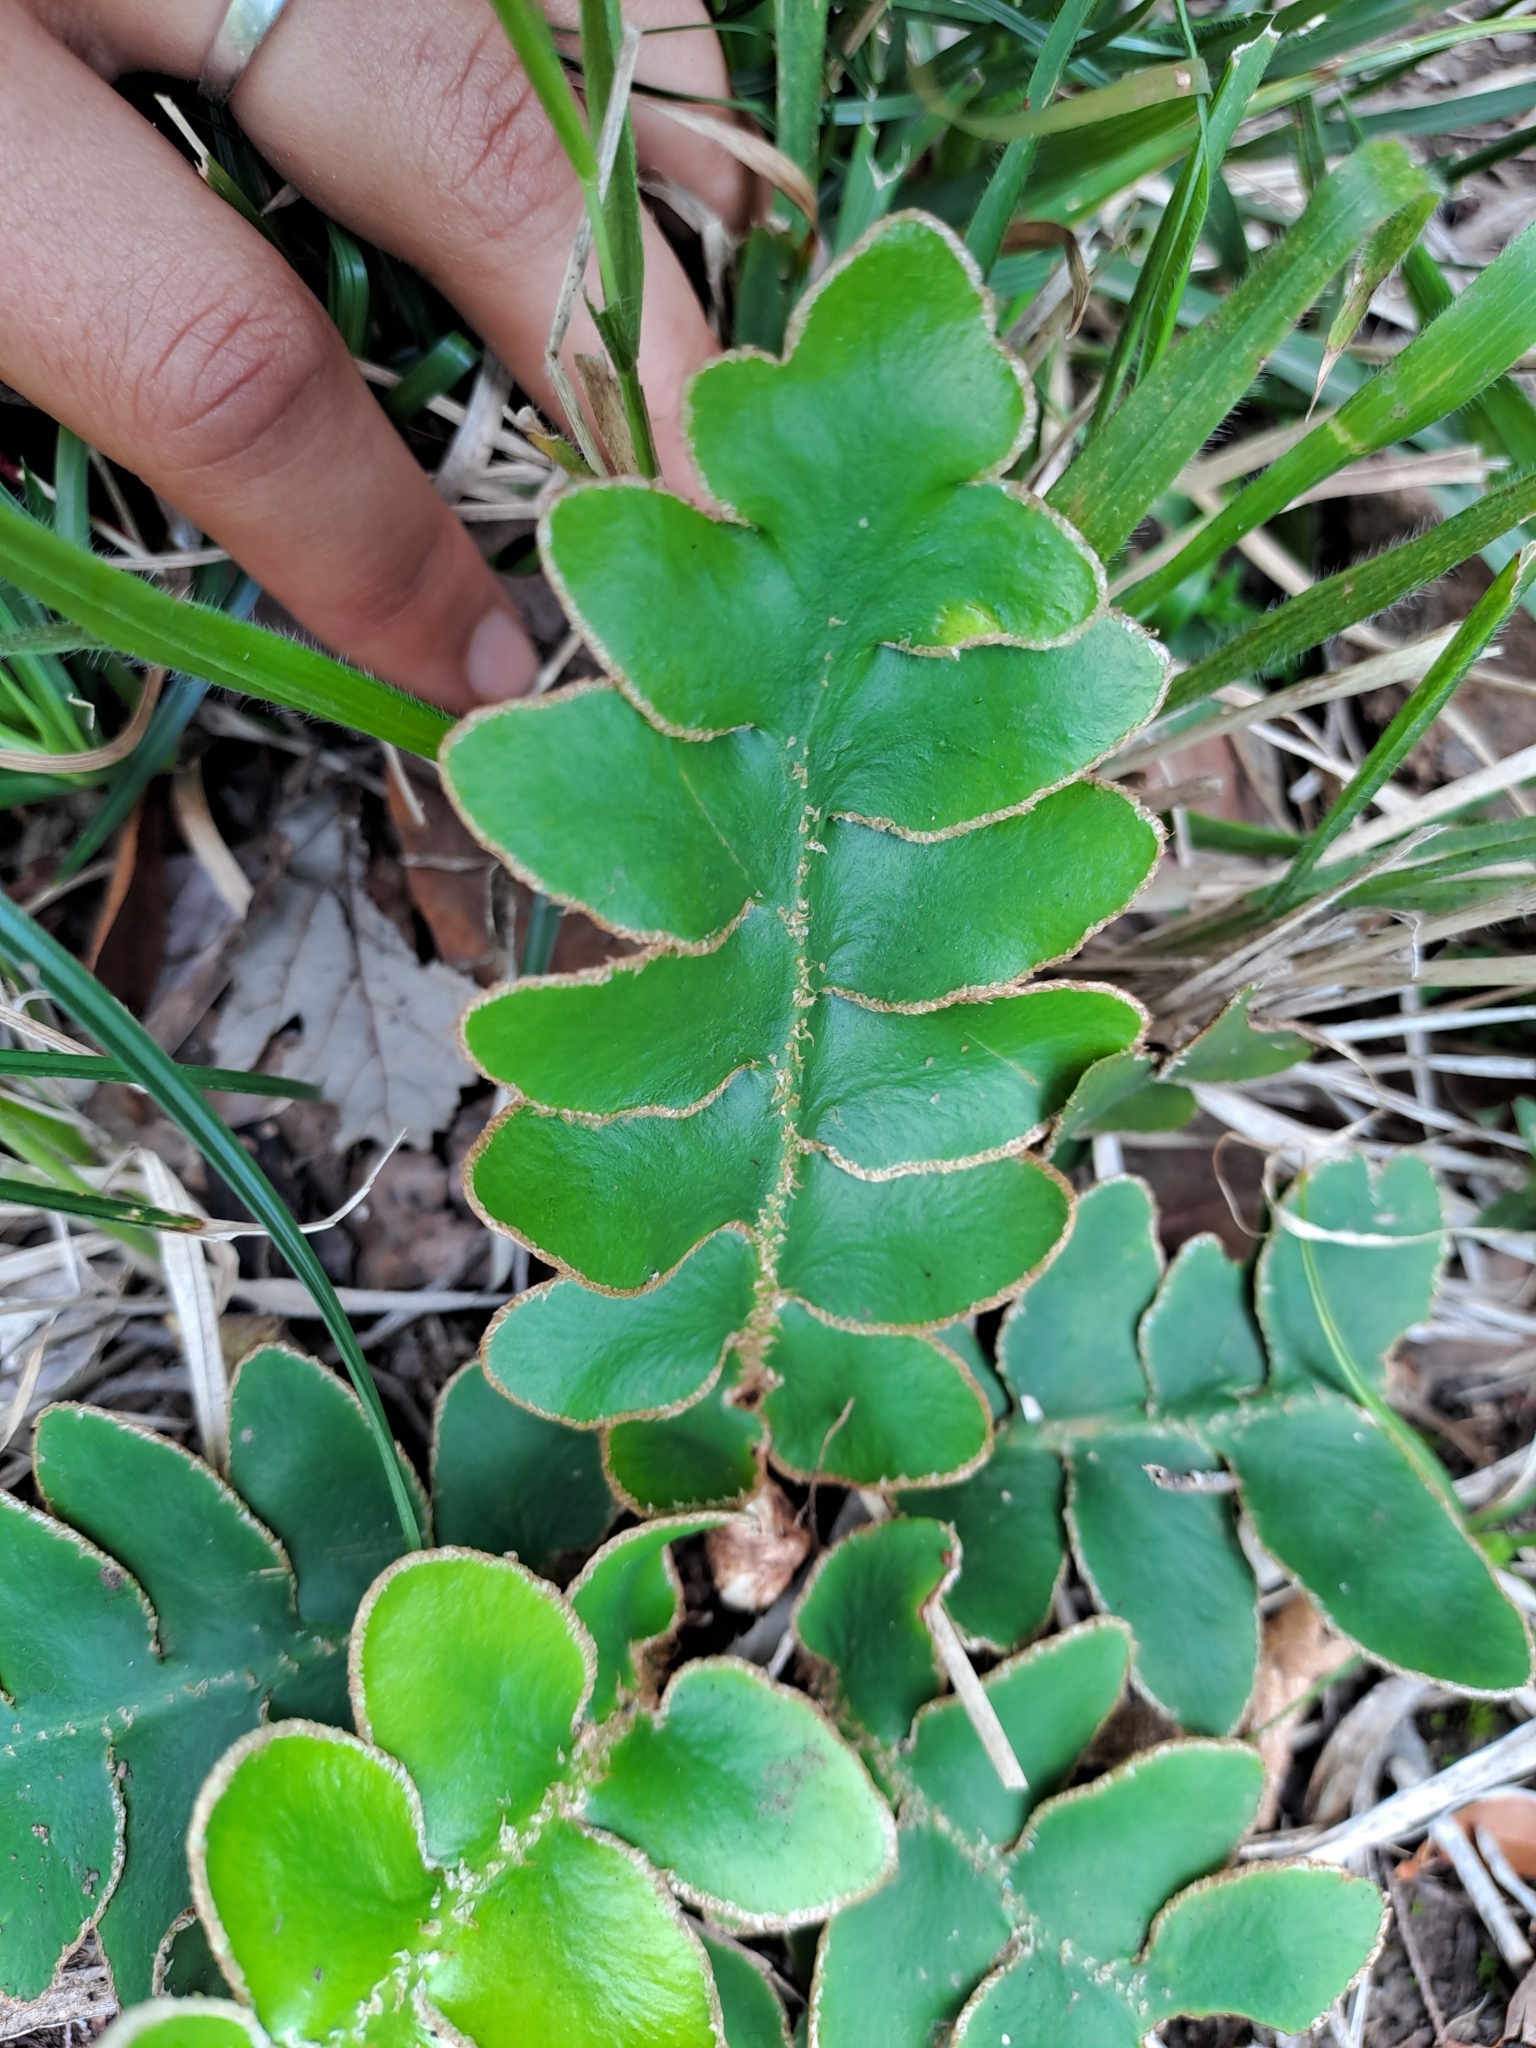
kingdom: Plantae
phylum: Tracheophyta
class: Polypodiopsida
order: Polypodiales
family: Aspleniaceae
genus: Asplenium
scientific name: Asplenium aureum
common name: Golden rustyback fern
